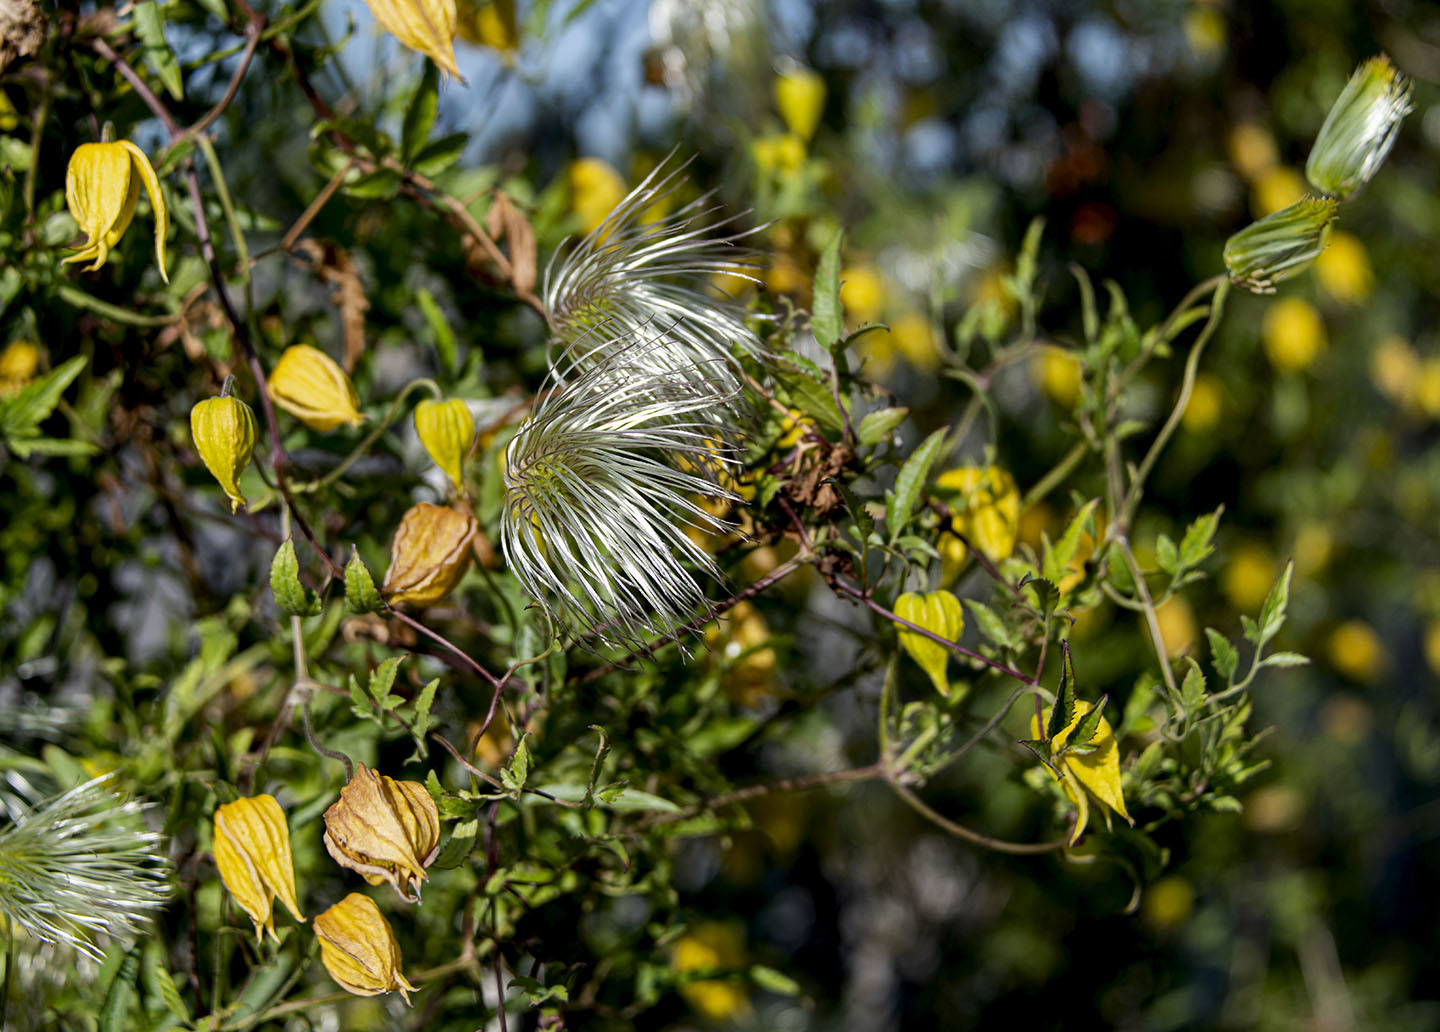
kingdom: Plantae
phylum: Tracheophyta
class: Magnoliopsida
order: Ranunculales
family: Ranunculaceae
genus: Clematis
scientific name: Clematis tangutica
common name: Orange-peel clematis
